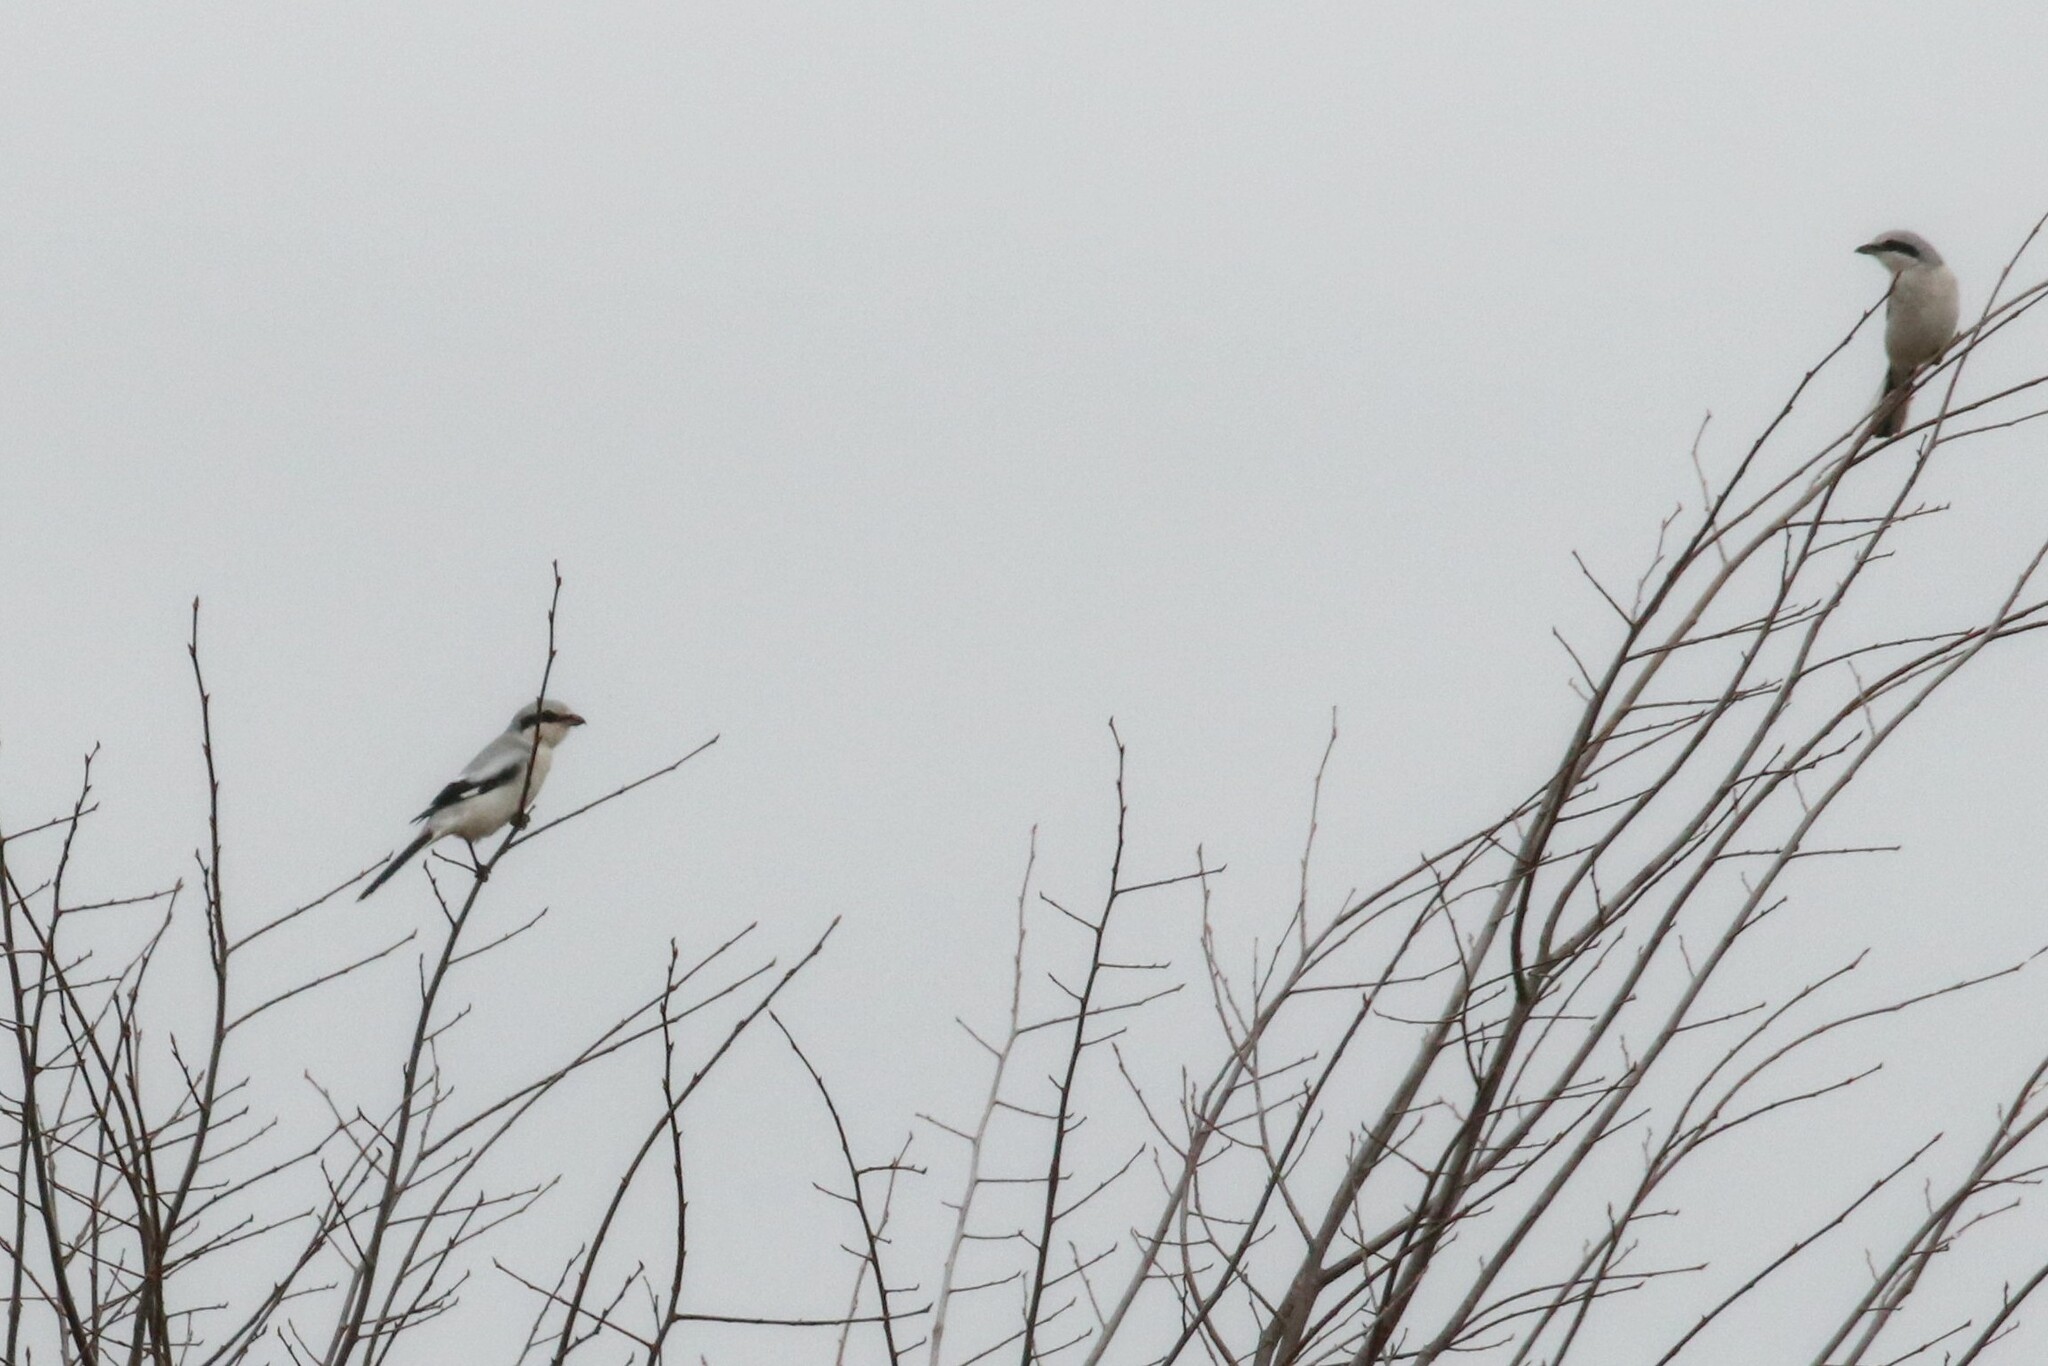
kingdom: Animalia
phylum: Chordata
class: Aves
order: Passeriformes
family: Laniidae
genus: Lanius
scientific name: Lanius excubitor
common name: Great grey shrike
